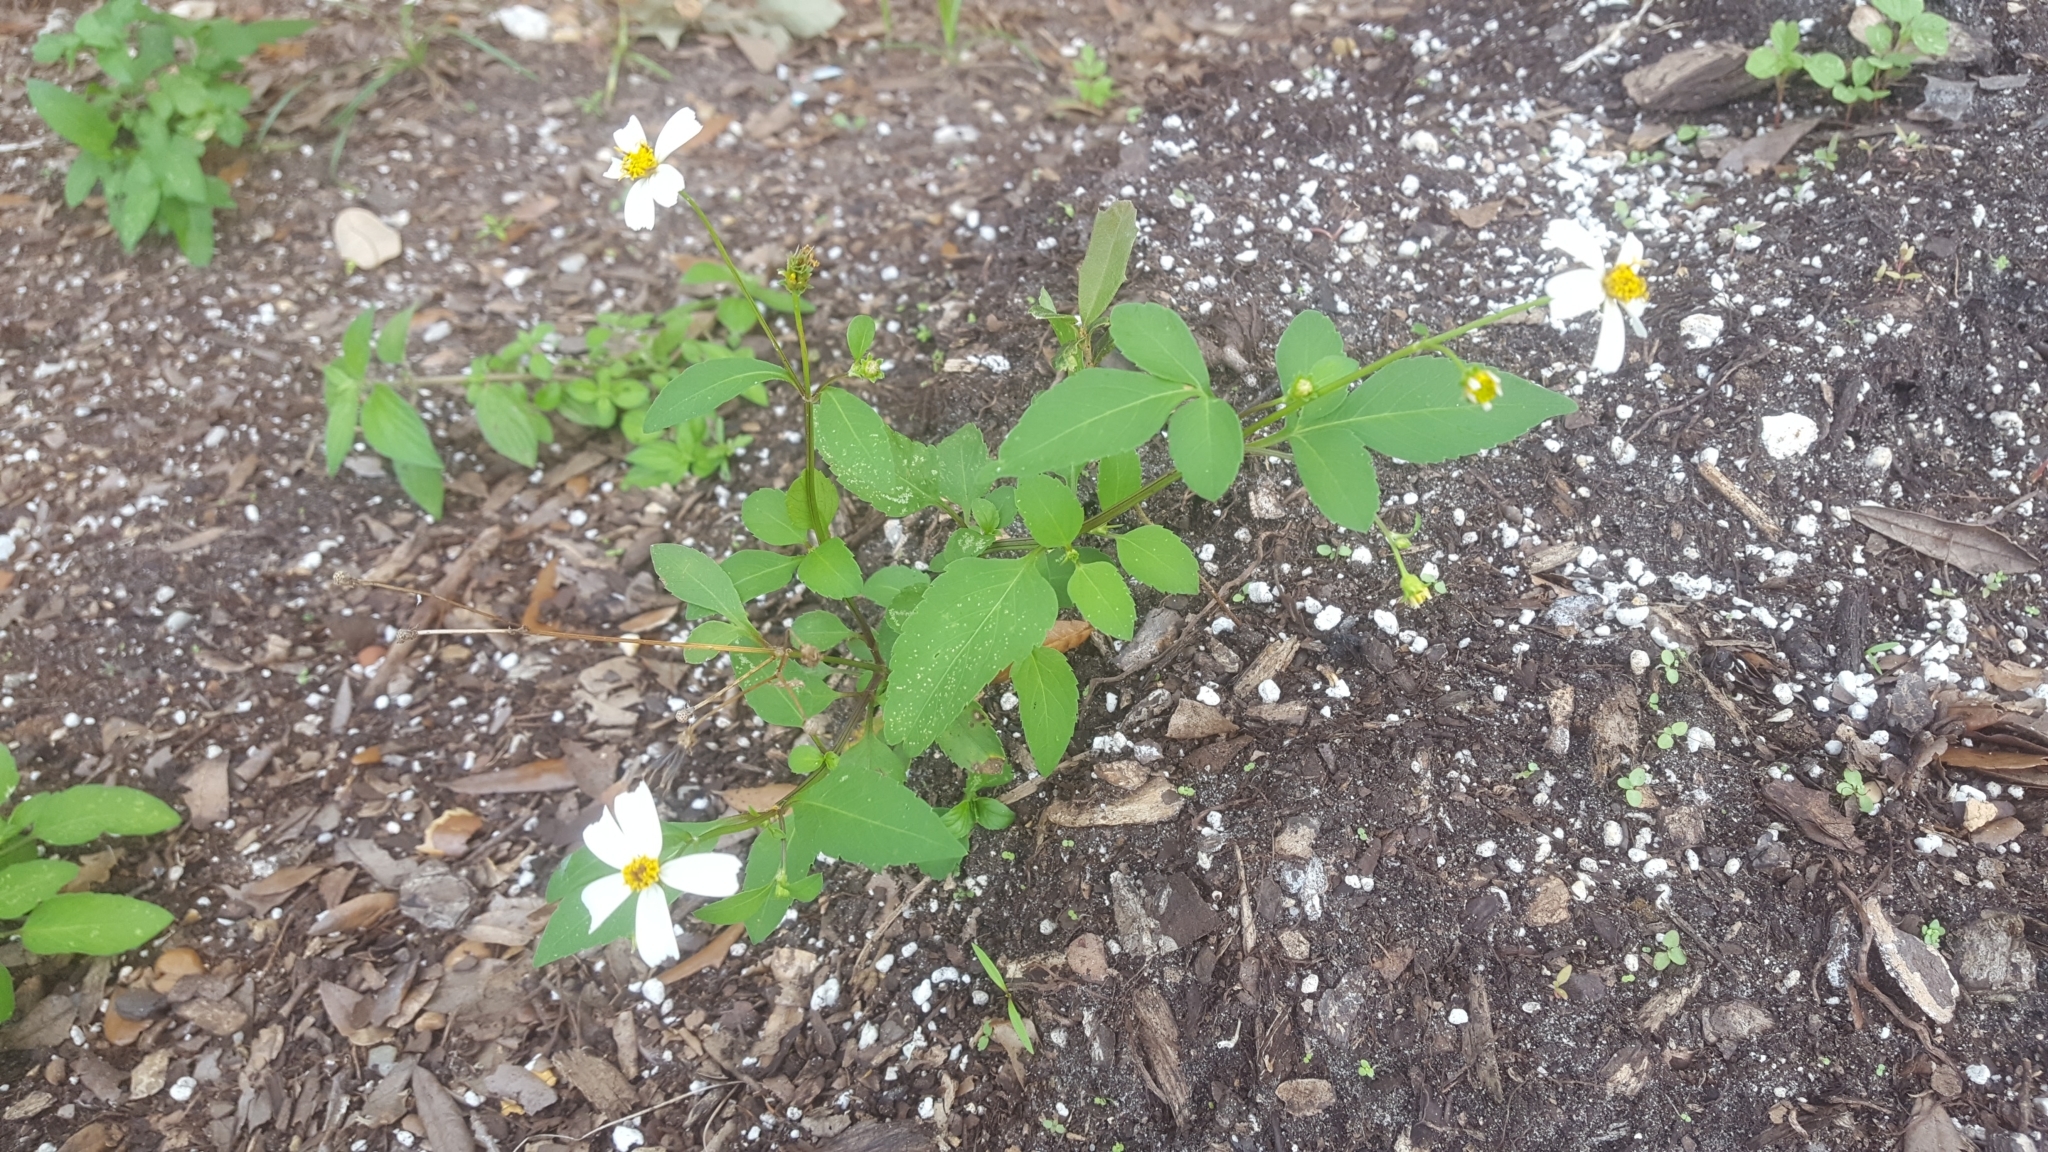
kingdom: Plantae
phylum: Tracheophyta
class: Magnoliopsida
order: Asterales
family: Asteraceae
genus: Bidens
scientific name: Bidens alba
